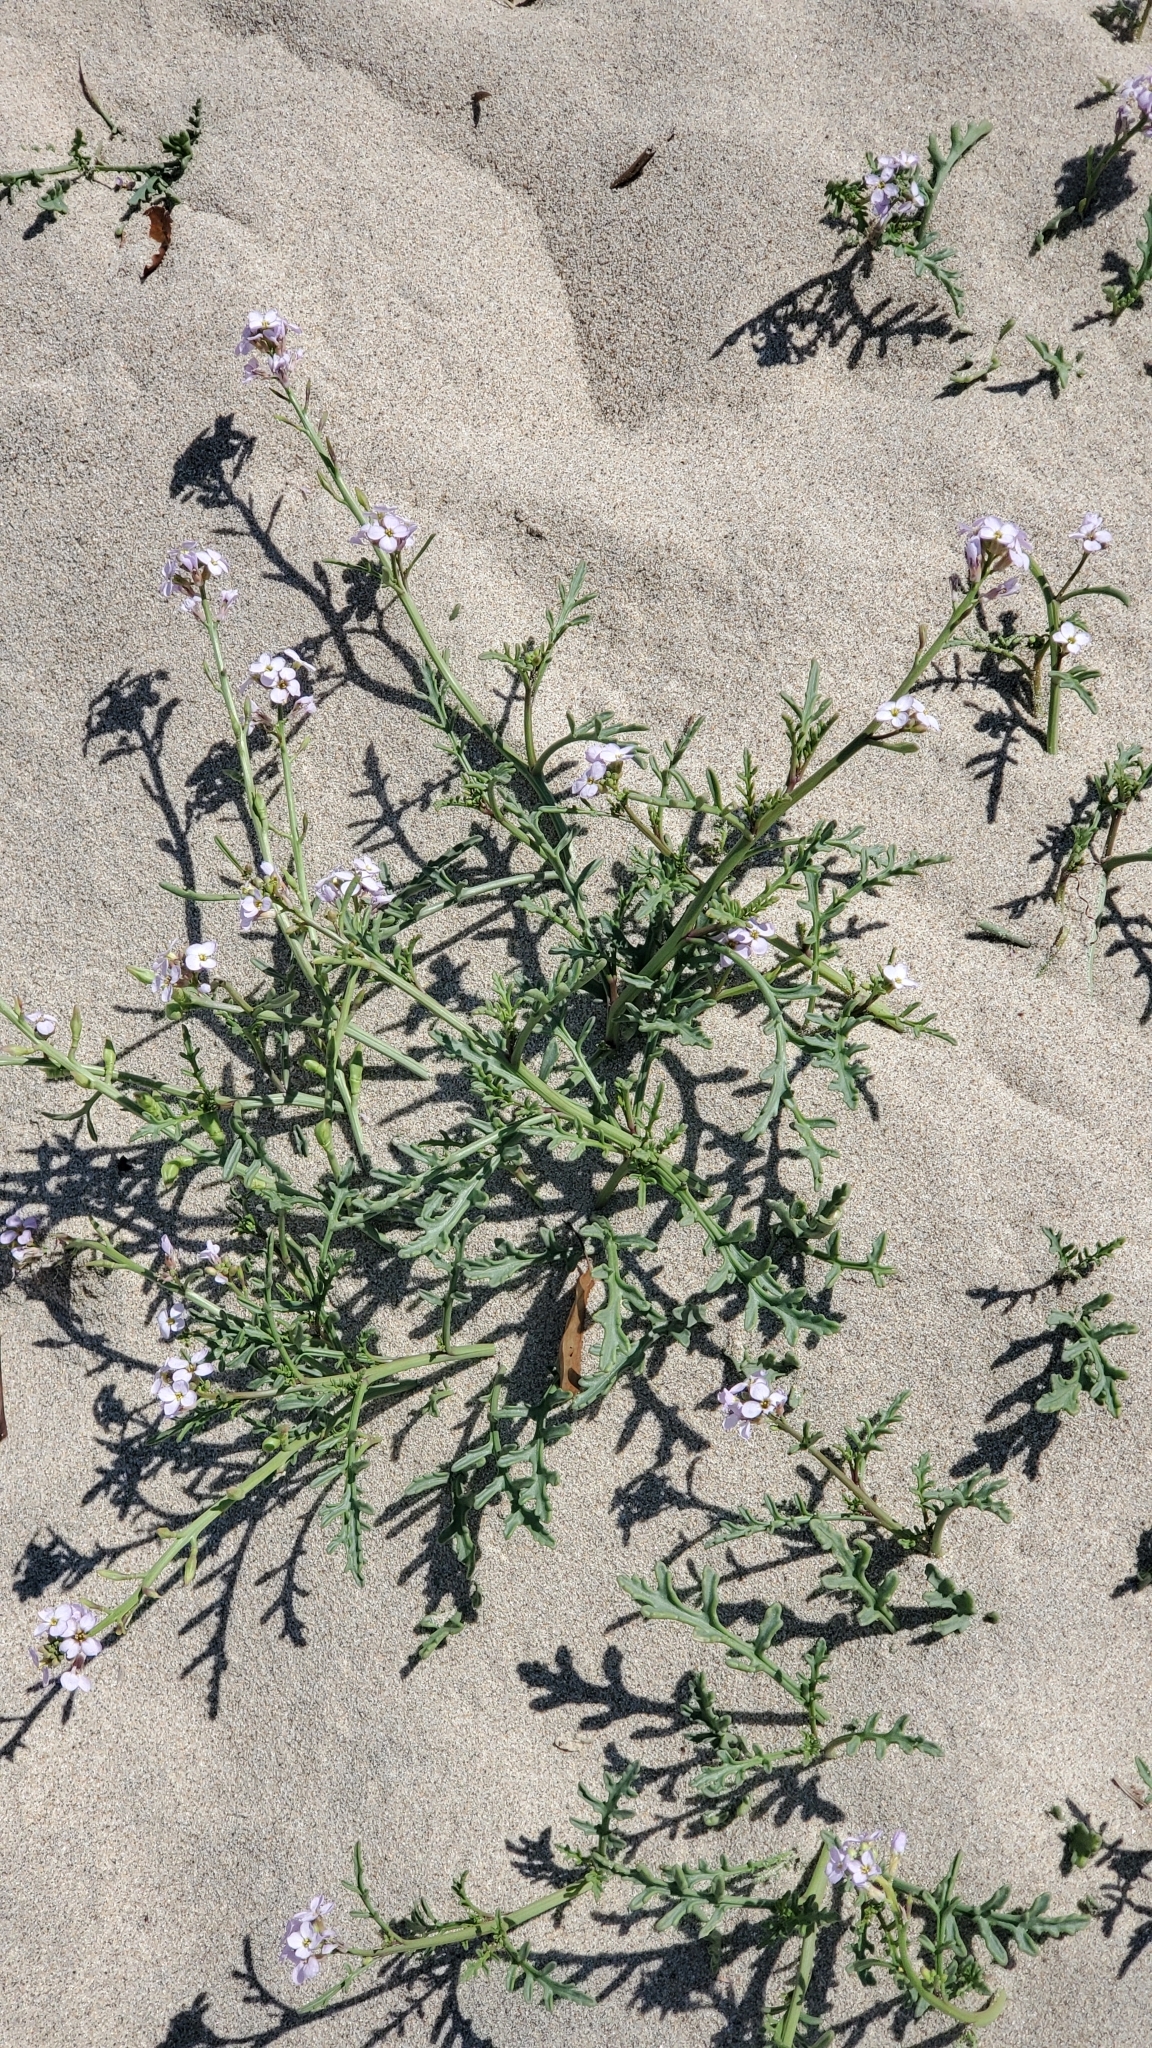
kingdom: Plantae
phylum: Tracheophyta
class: Magnoliopsida
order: Brassicales
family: Brassicaceae
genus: Cakile
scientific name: Cakile maritima
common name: Sea rocket
